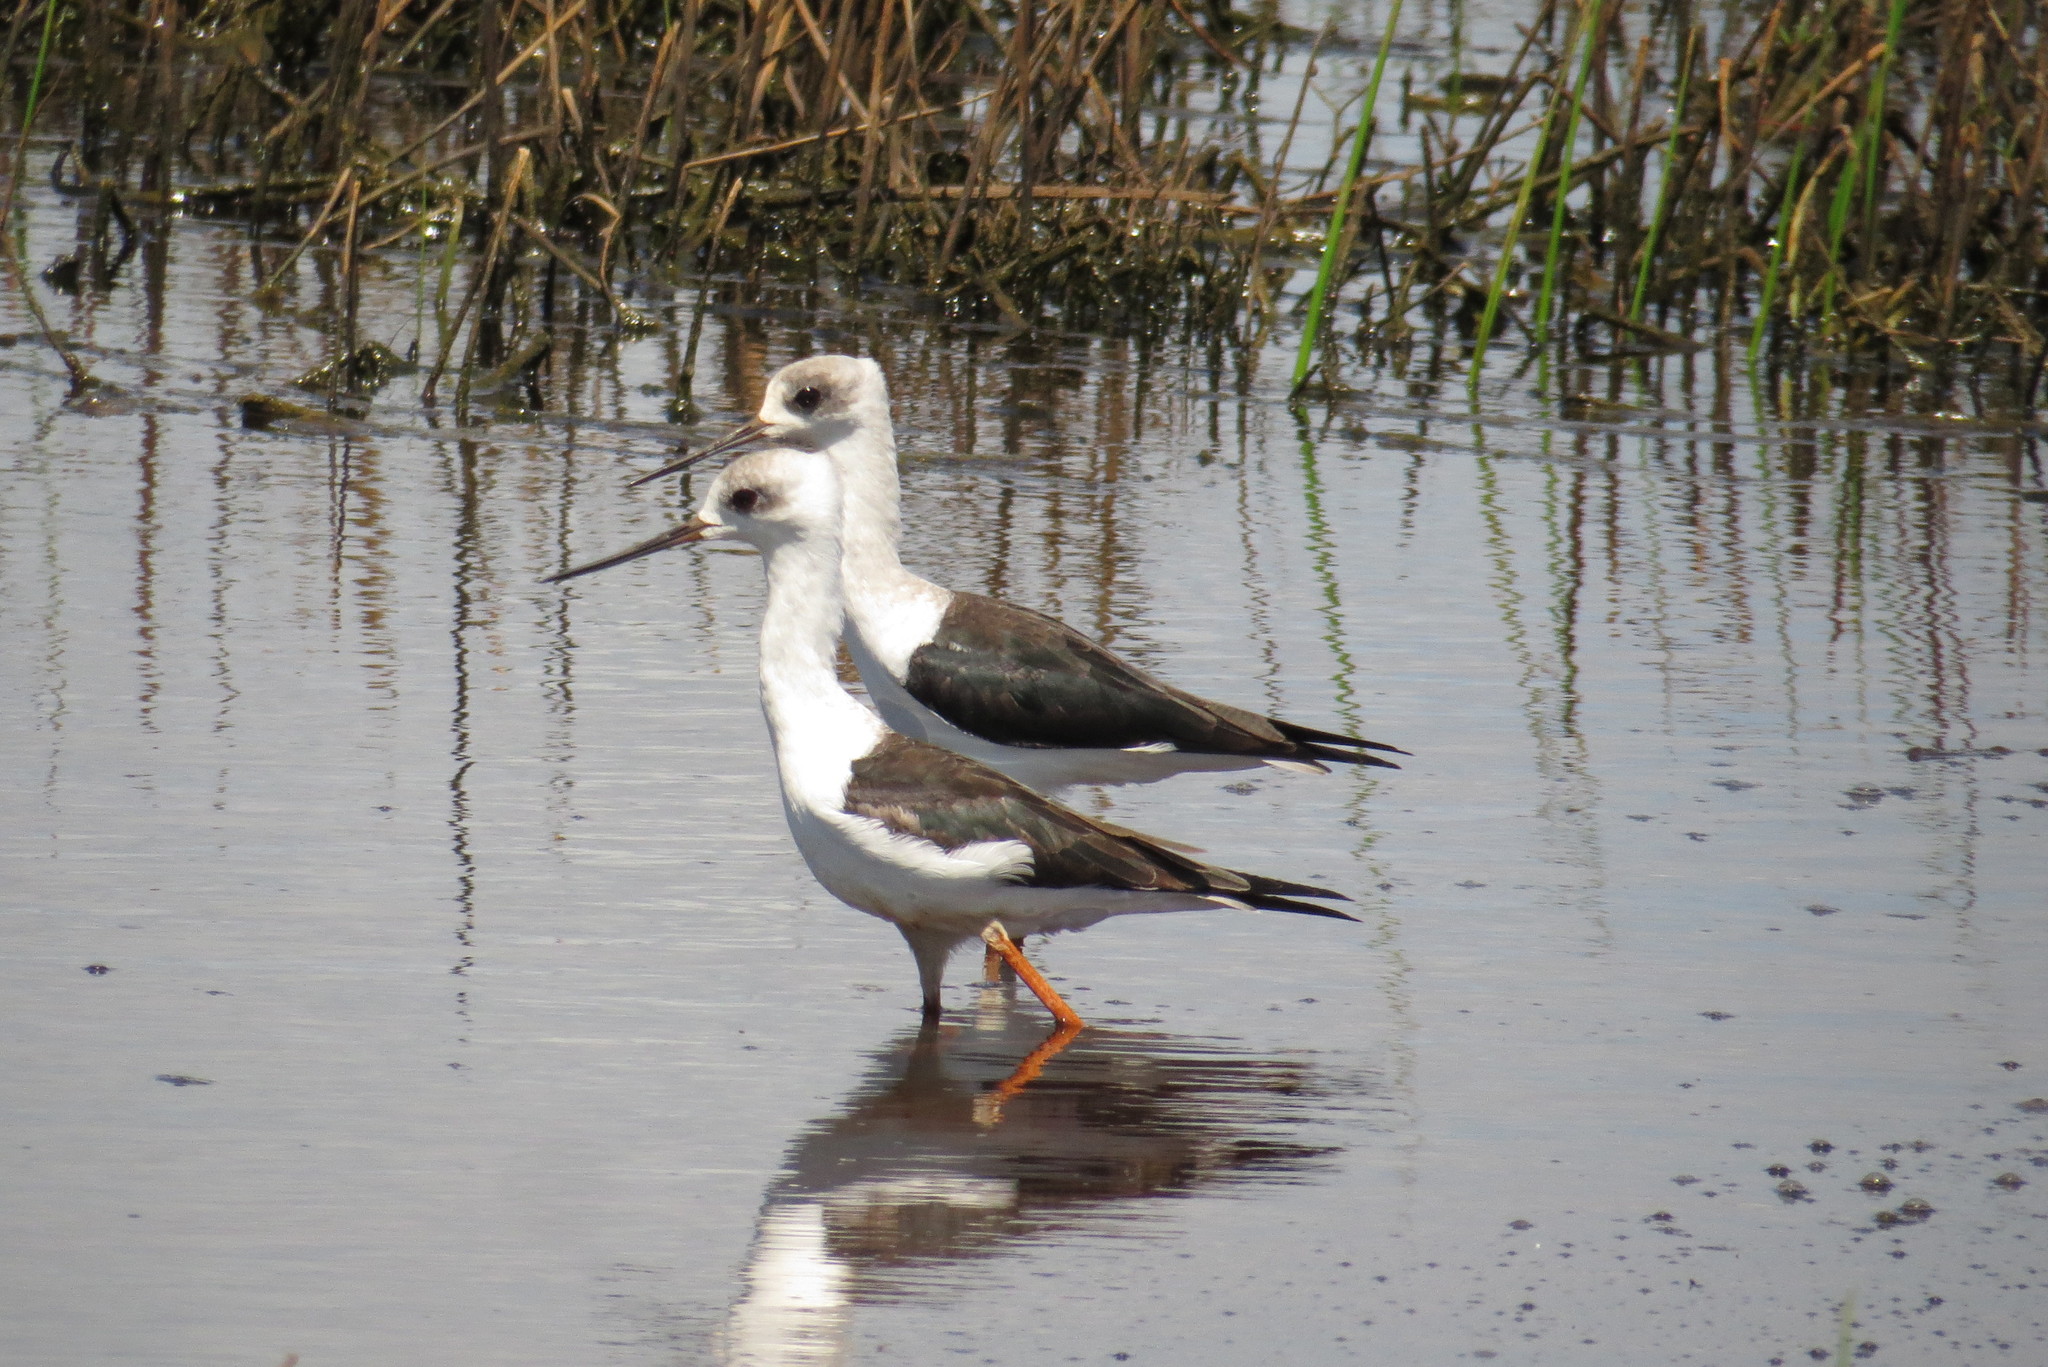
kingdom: Animalia
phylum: Chordata
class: Aves
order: Charadriiformes
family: Recurvirostridae
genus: Himantopus
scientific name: Himantopus leucocephalus
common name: White-headed stilt
